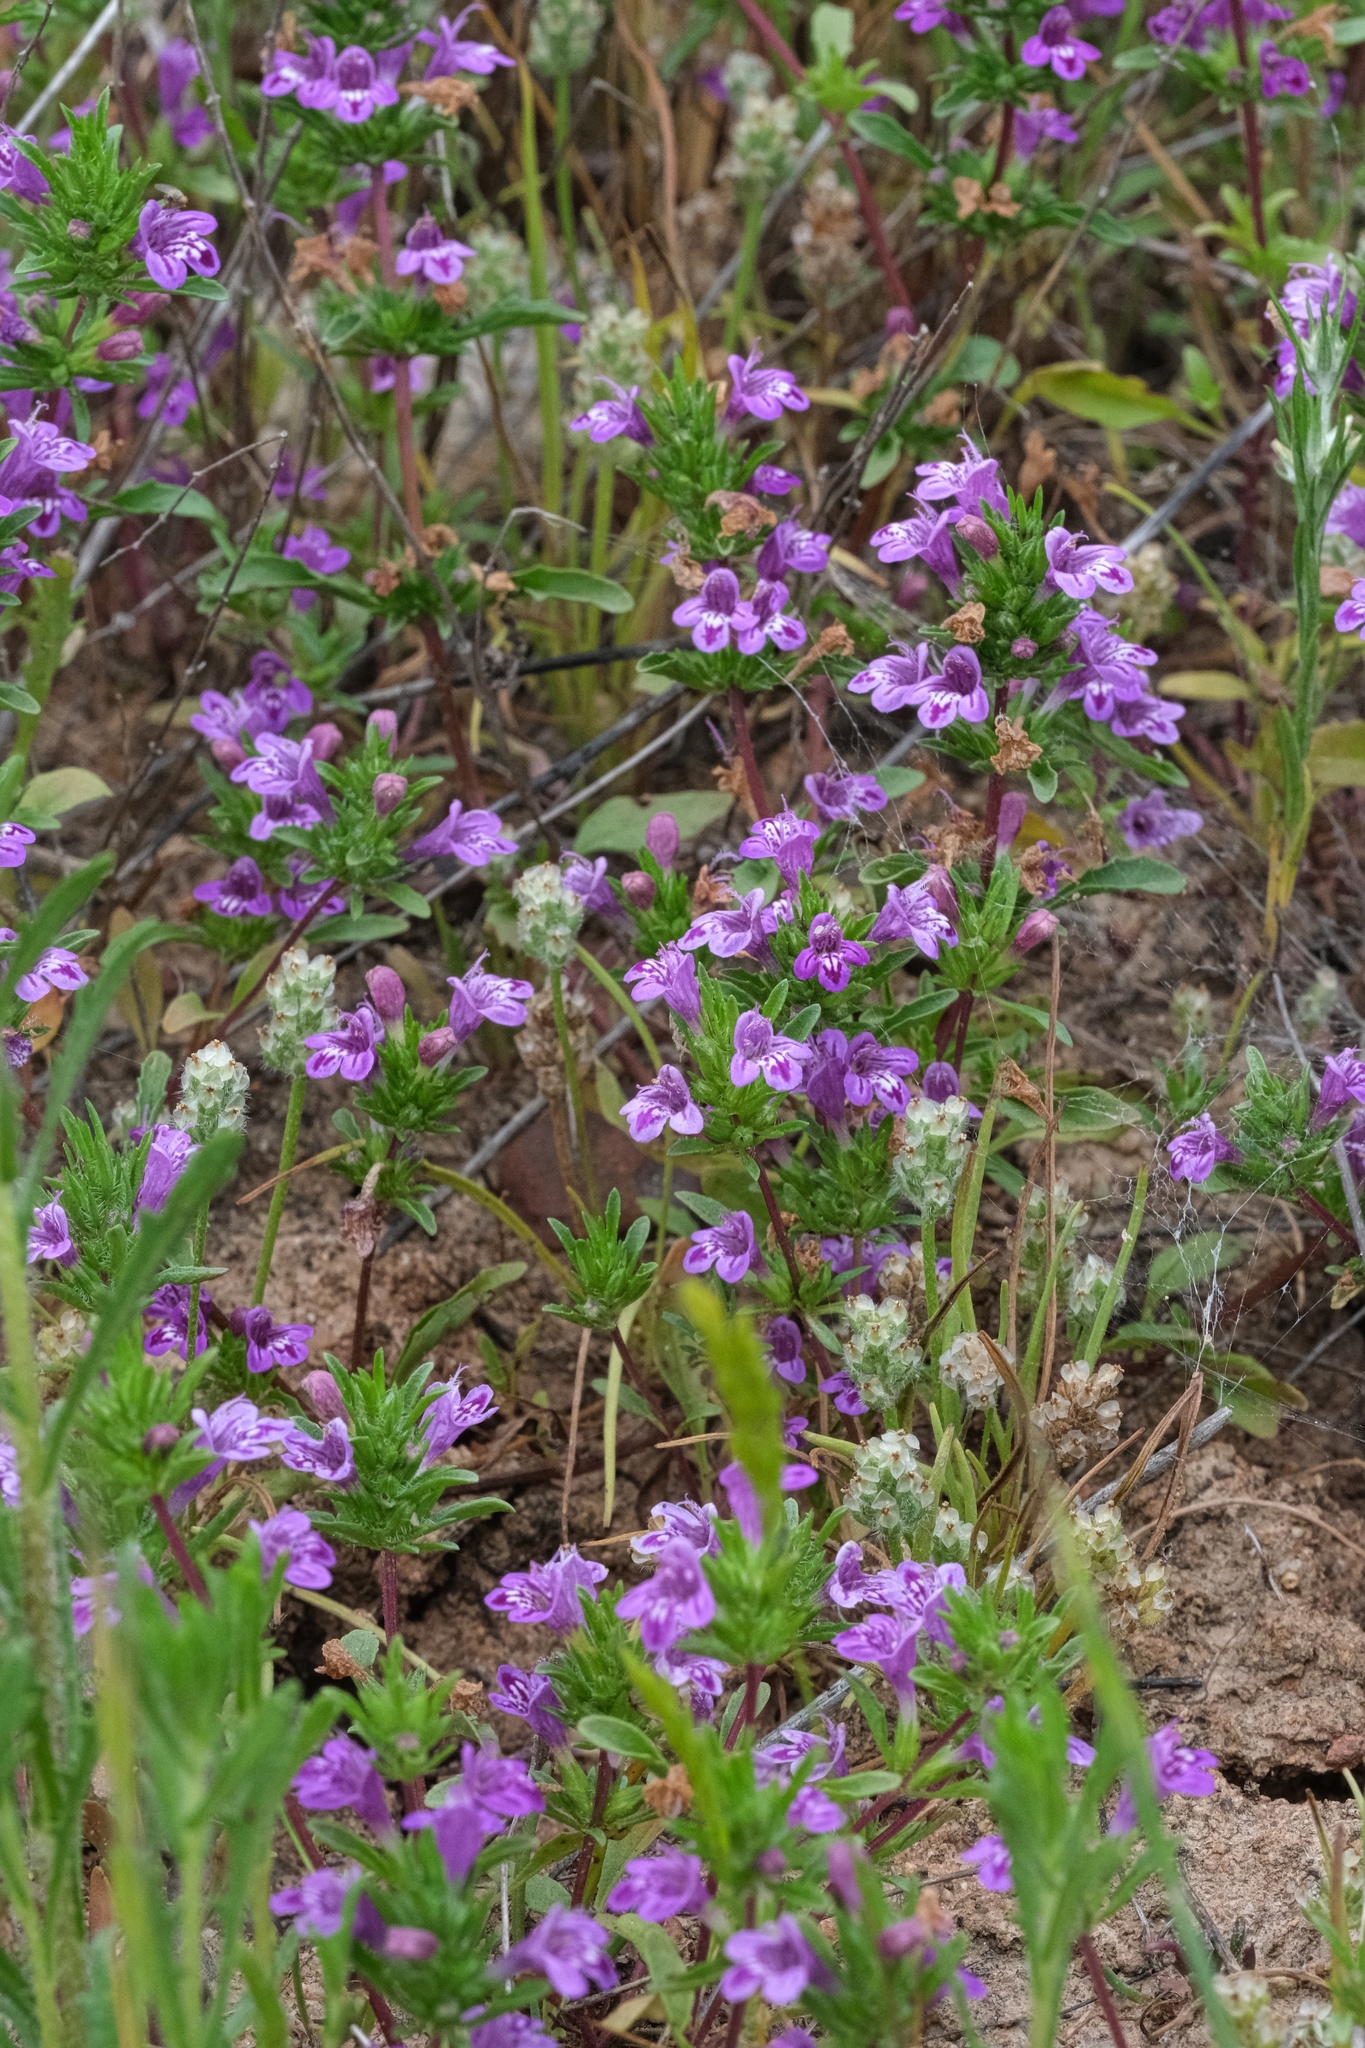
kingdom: Plantae
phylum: Tracheophyta
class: Magnoliopsida
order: Lamiales
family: Lamiaceae
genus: Pogogyne
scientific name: Pogogyne nudiuscula
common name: Otay mesa-mint
